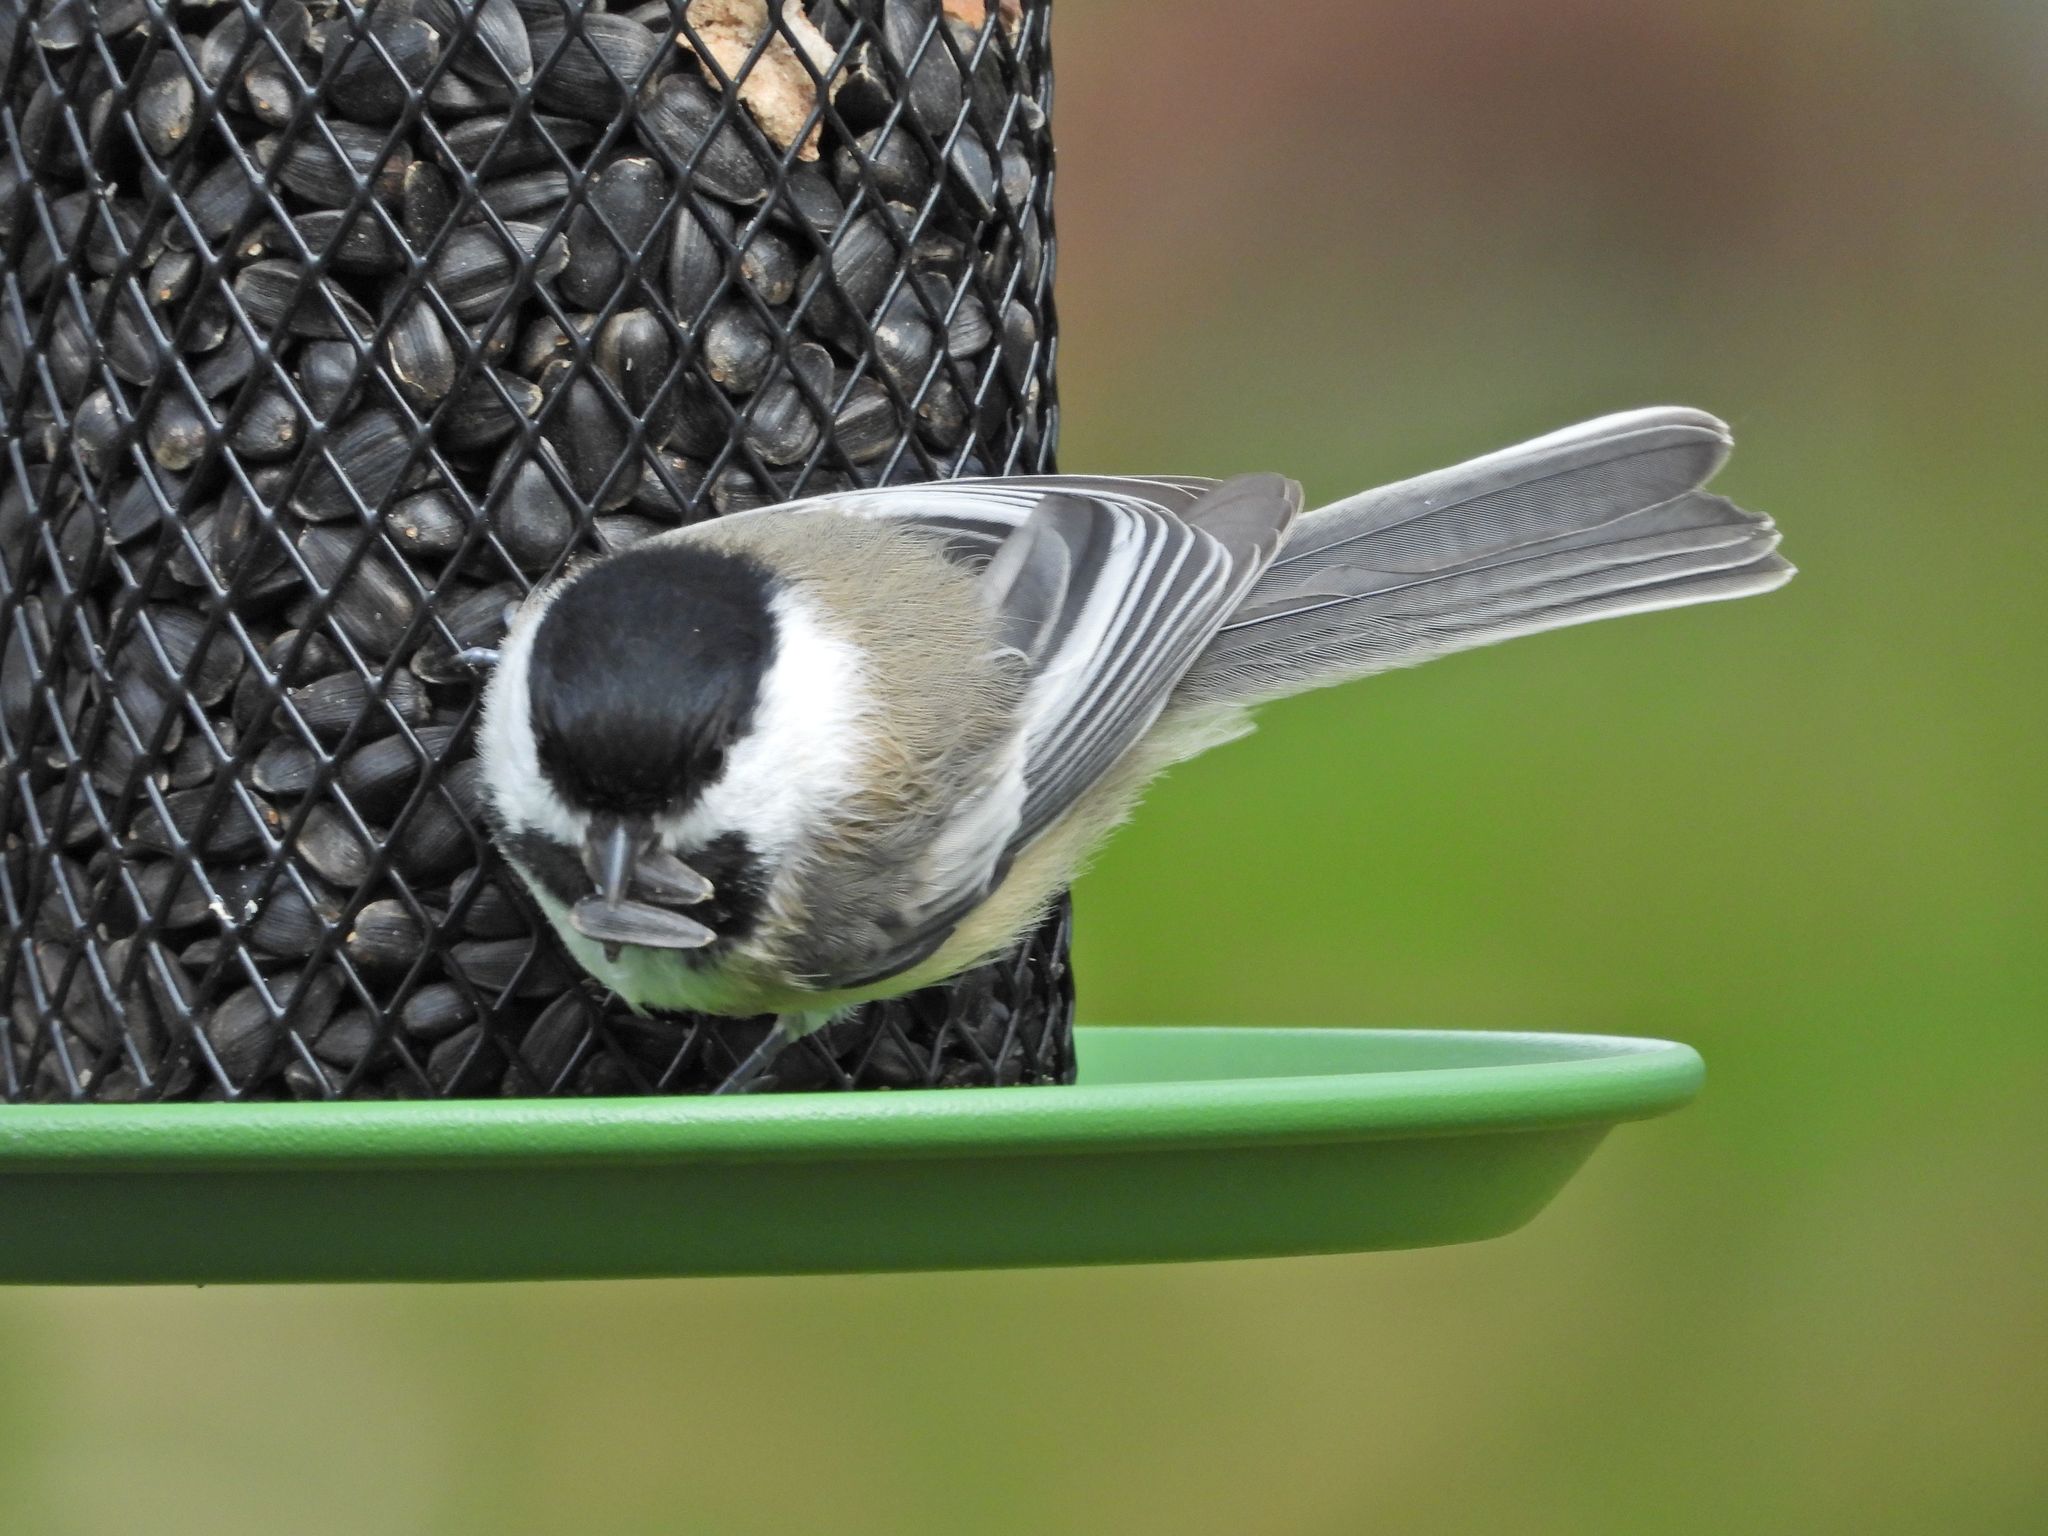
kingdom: Animalia
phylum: Chordata
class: Aves
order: Passeriformes
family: Paridae
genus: Poecile
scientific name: Poecile atricapillus
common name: Black-capped chickadee
